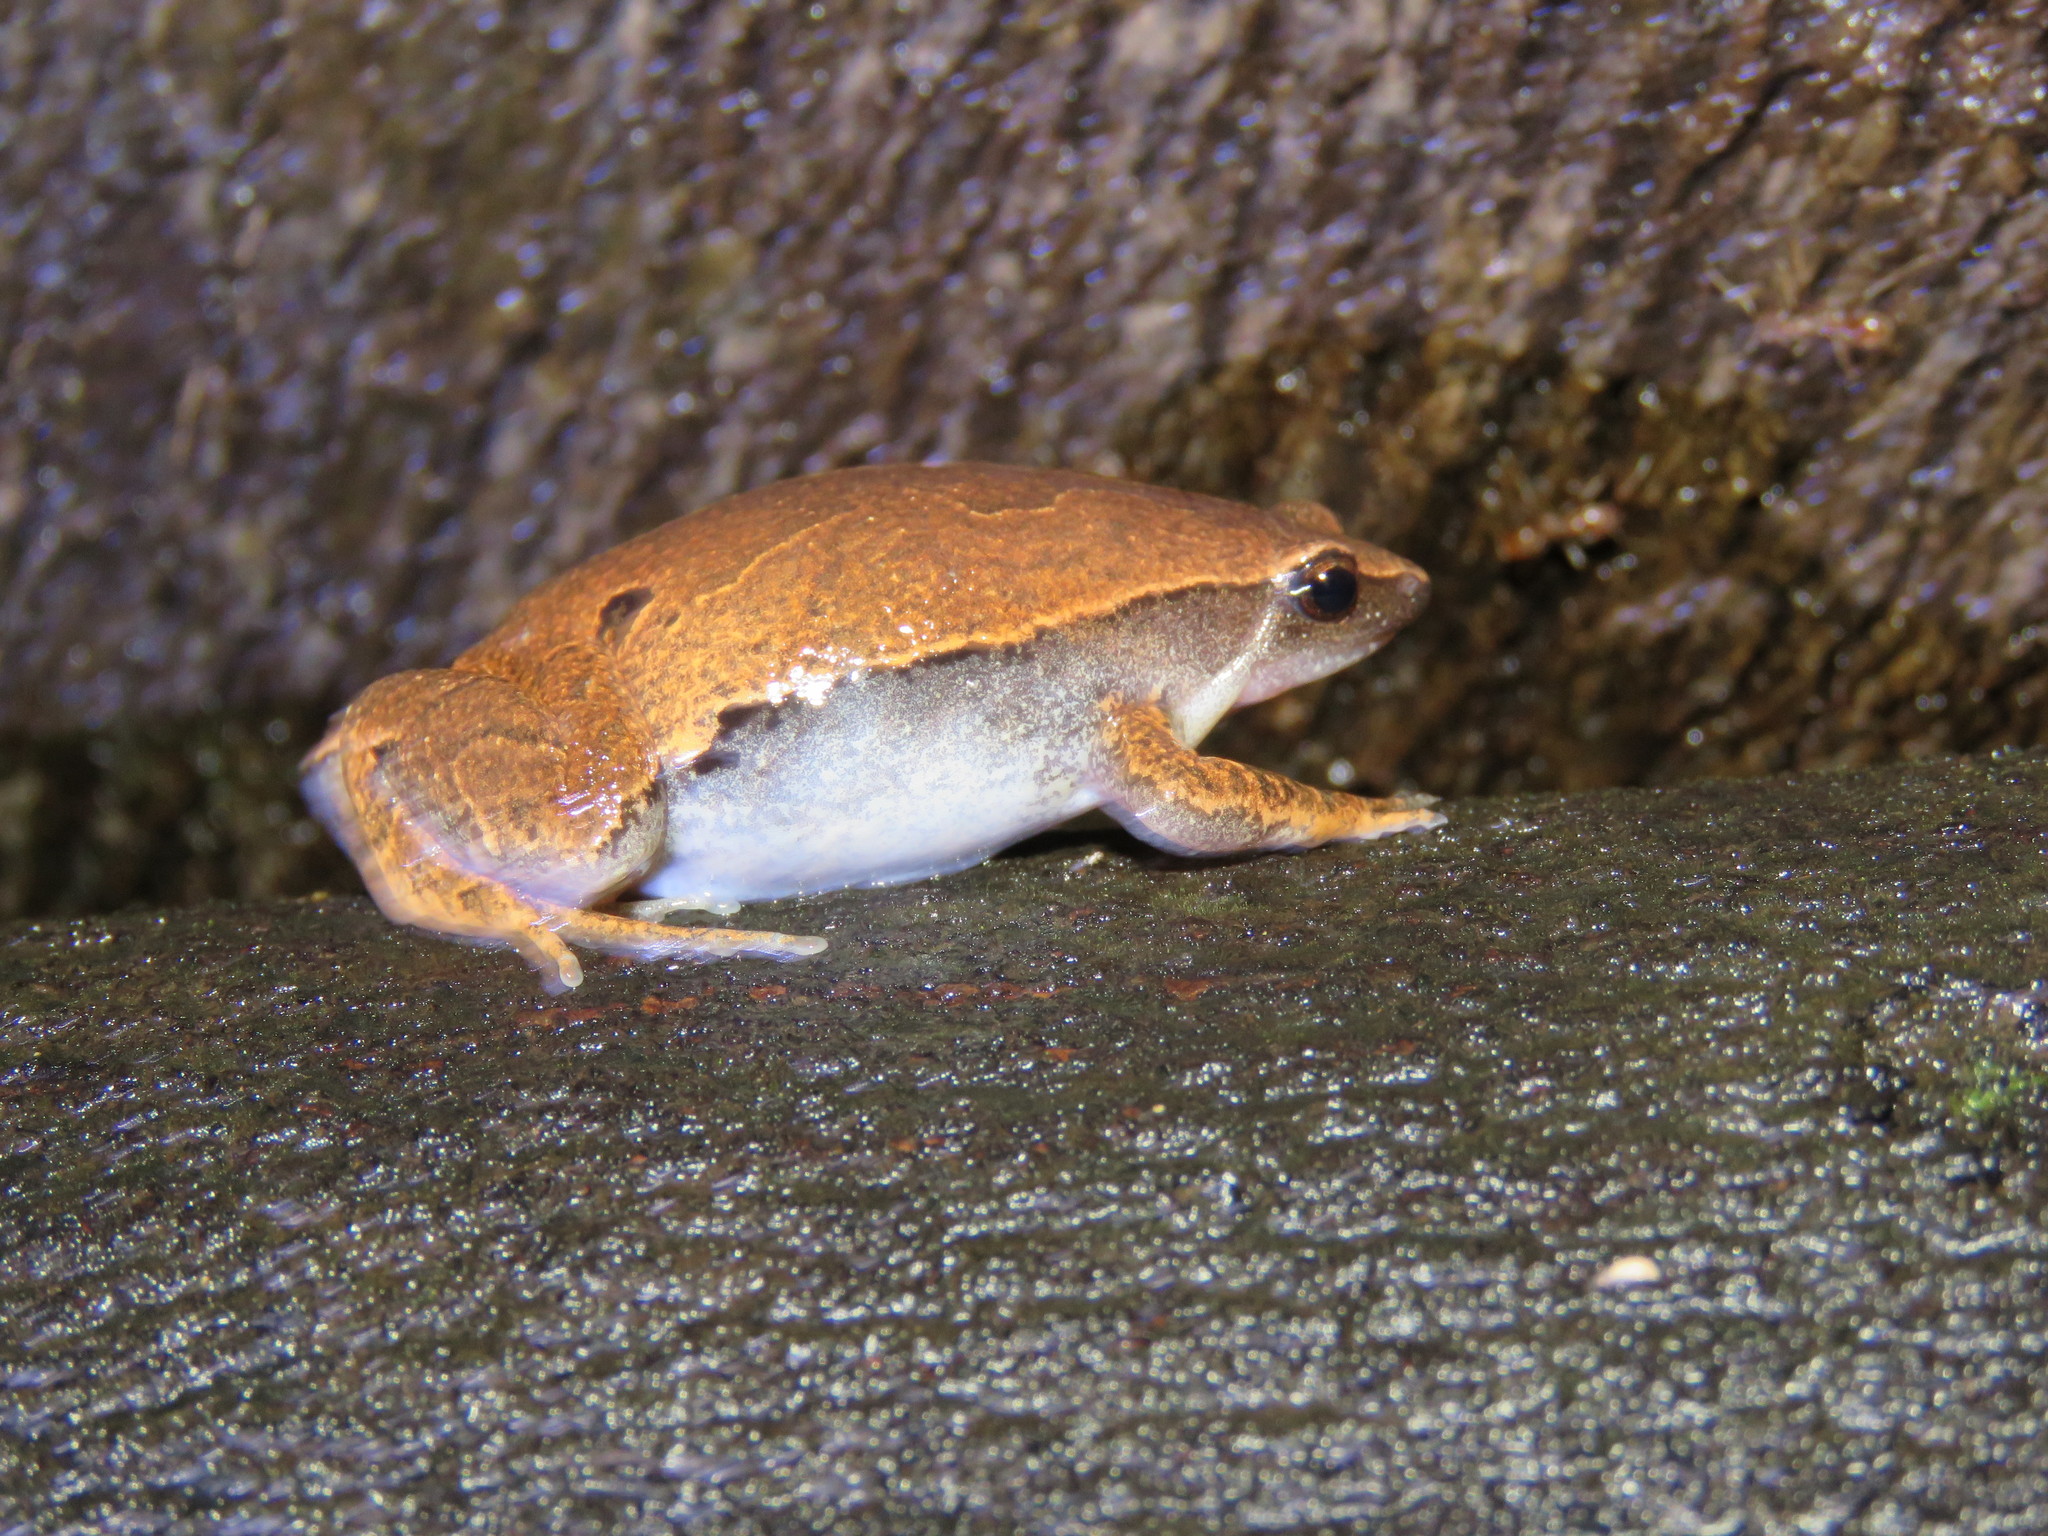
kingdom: Animalia
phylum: Chordata
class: Amphibia
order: Anura
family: Microhylidae
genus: Hamptophryne
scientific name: Hamptophryne boliviana
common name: Bolivian bleating frog
